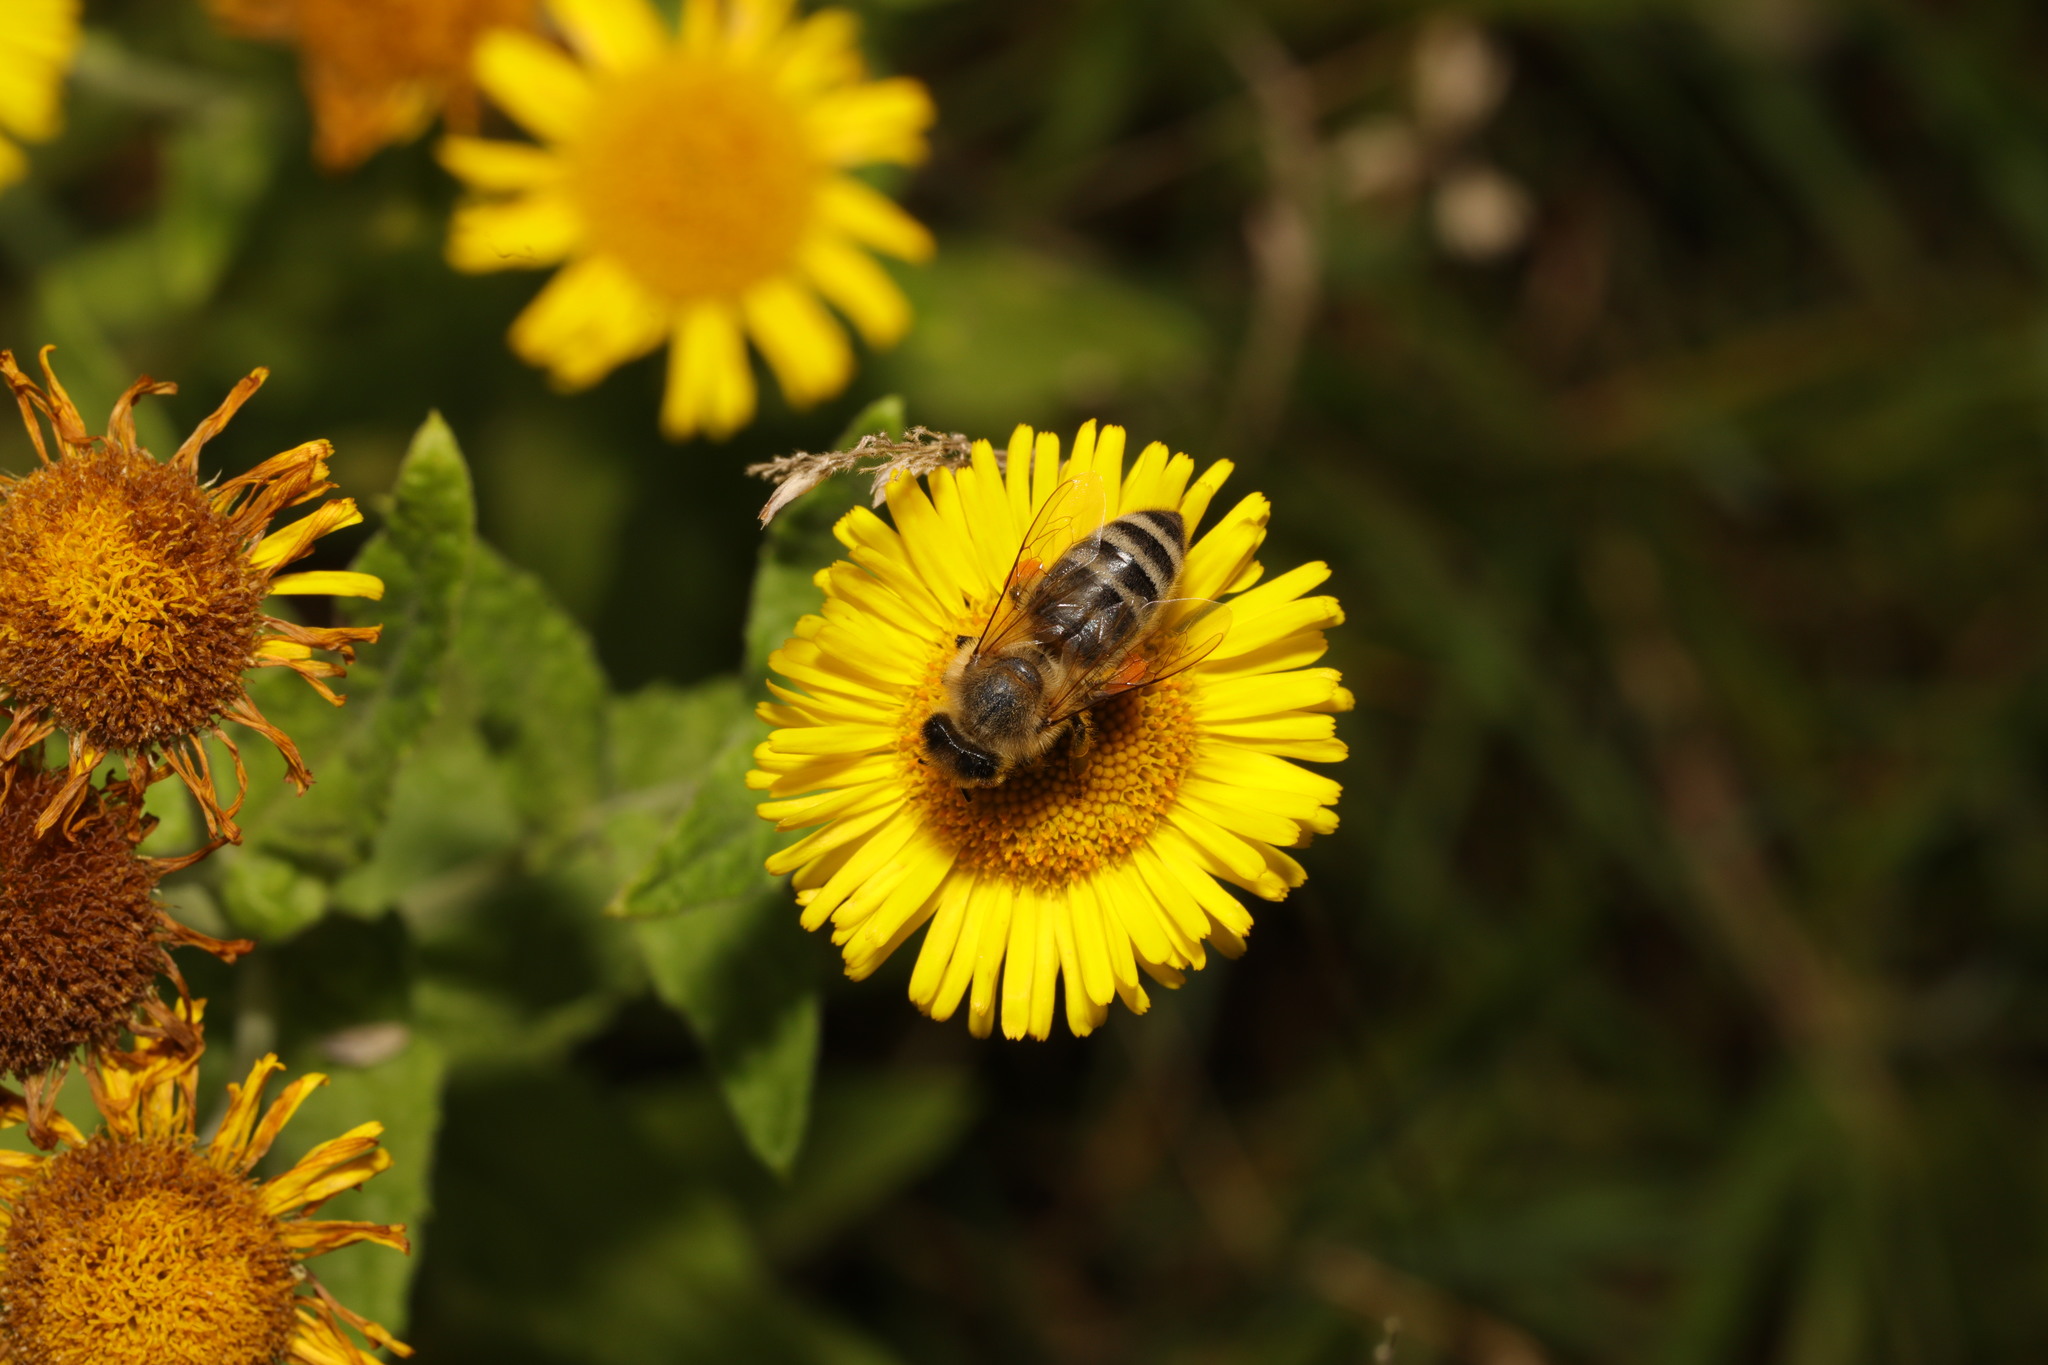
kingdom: Animalia
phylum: Arthropoda
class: Insecta
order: Hymenoptera
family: Apidae
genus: Apis
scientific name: Apis mellifera
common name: Honey bee
